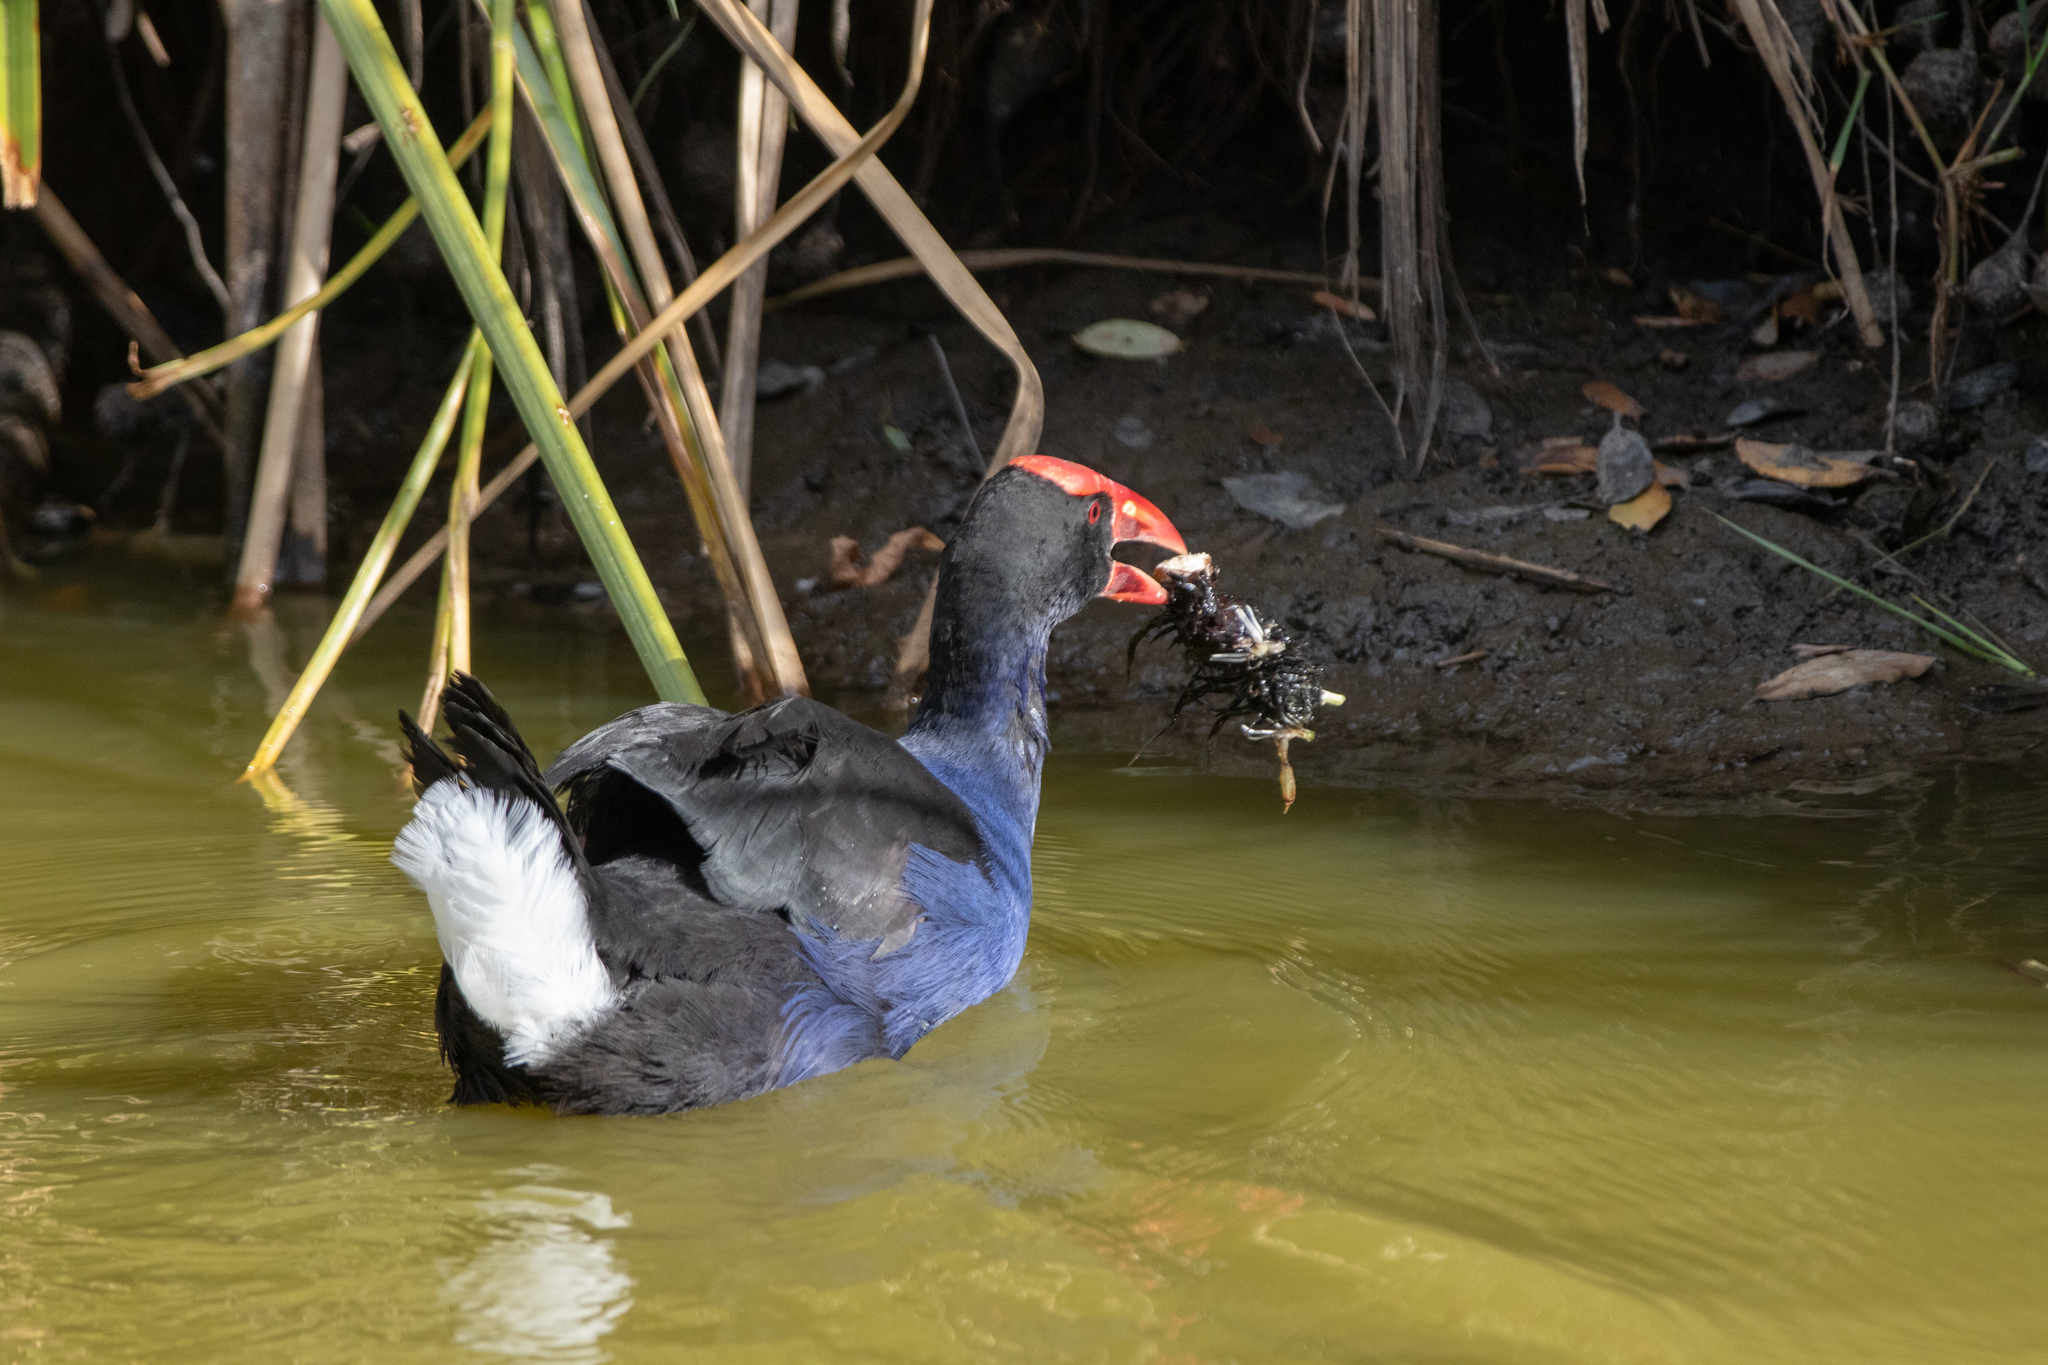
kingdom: Animalia
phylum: Chordata
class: Aves
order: Gruiformes
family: Rallidae
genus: Porphyrio
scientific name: Porphyrio melanotus
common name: Australasian swamphen
